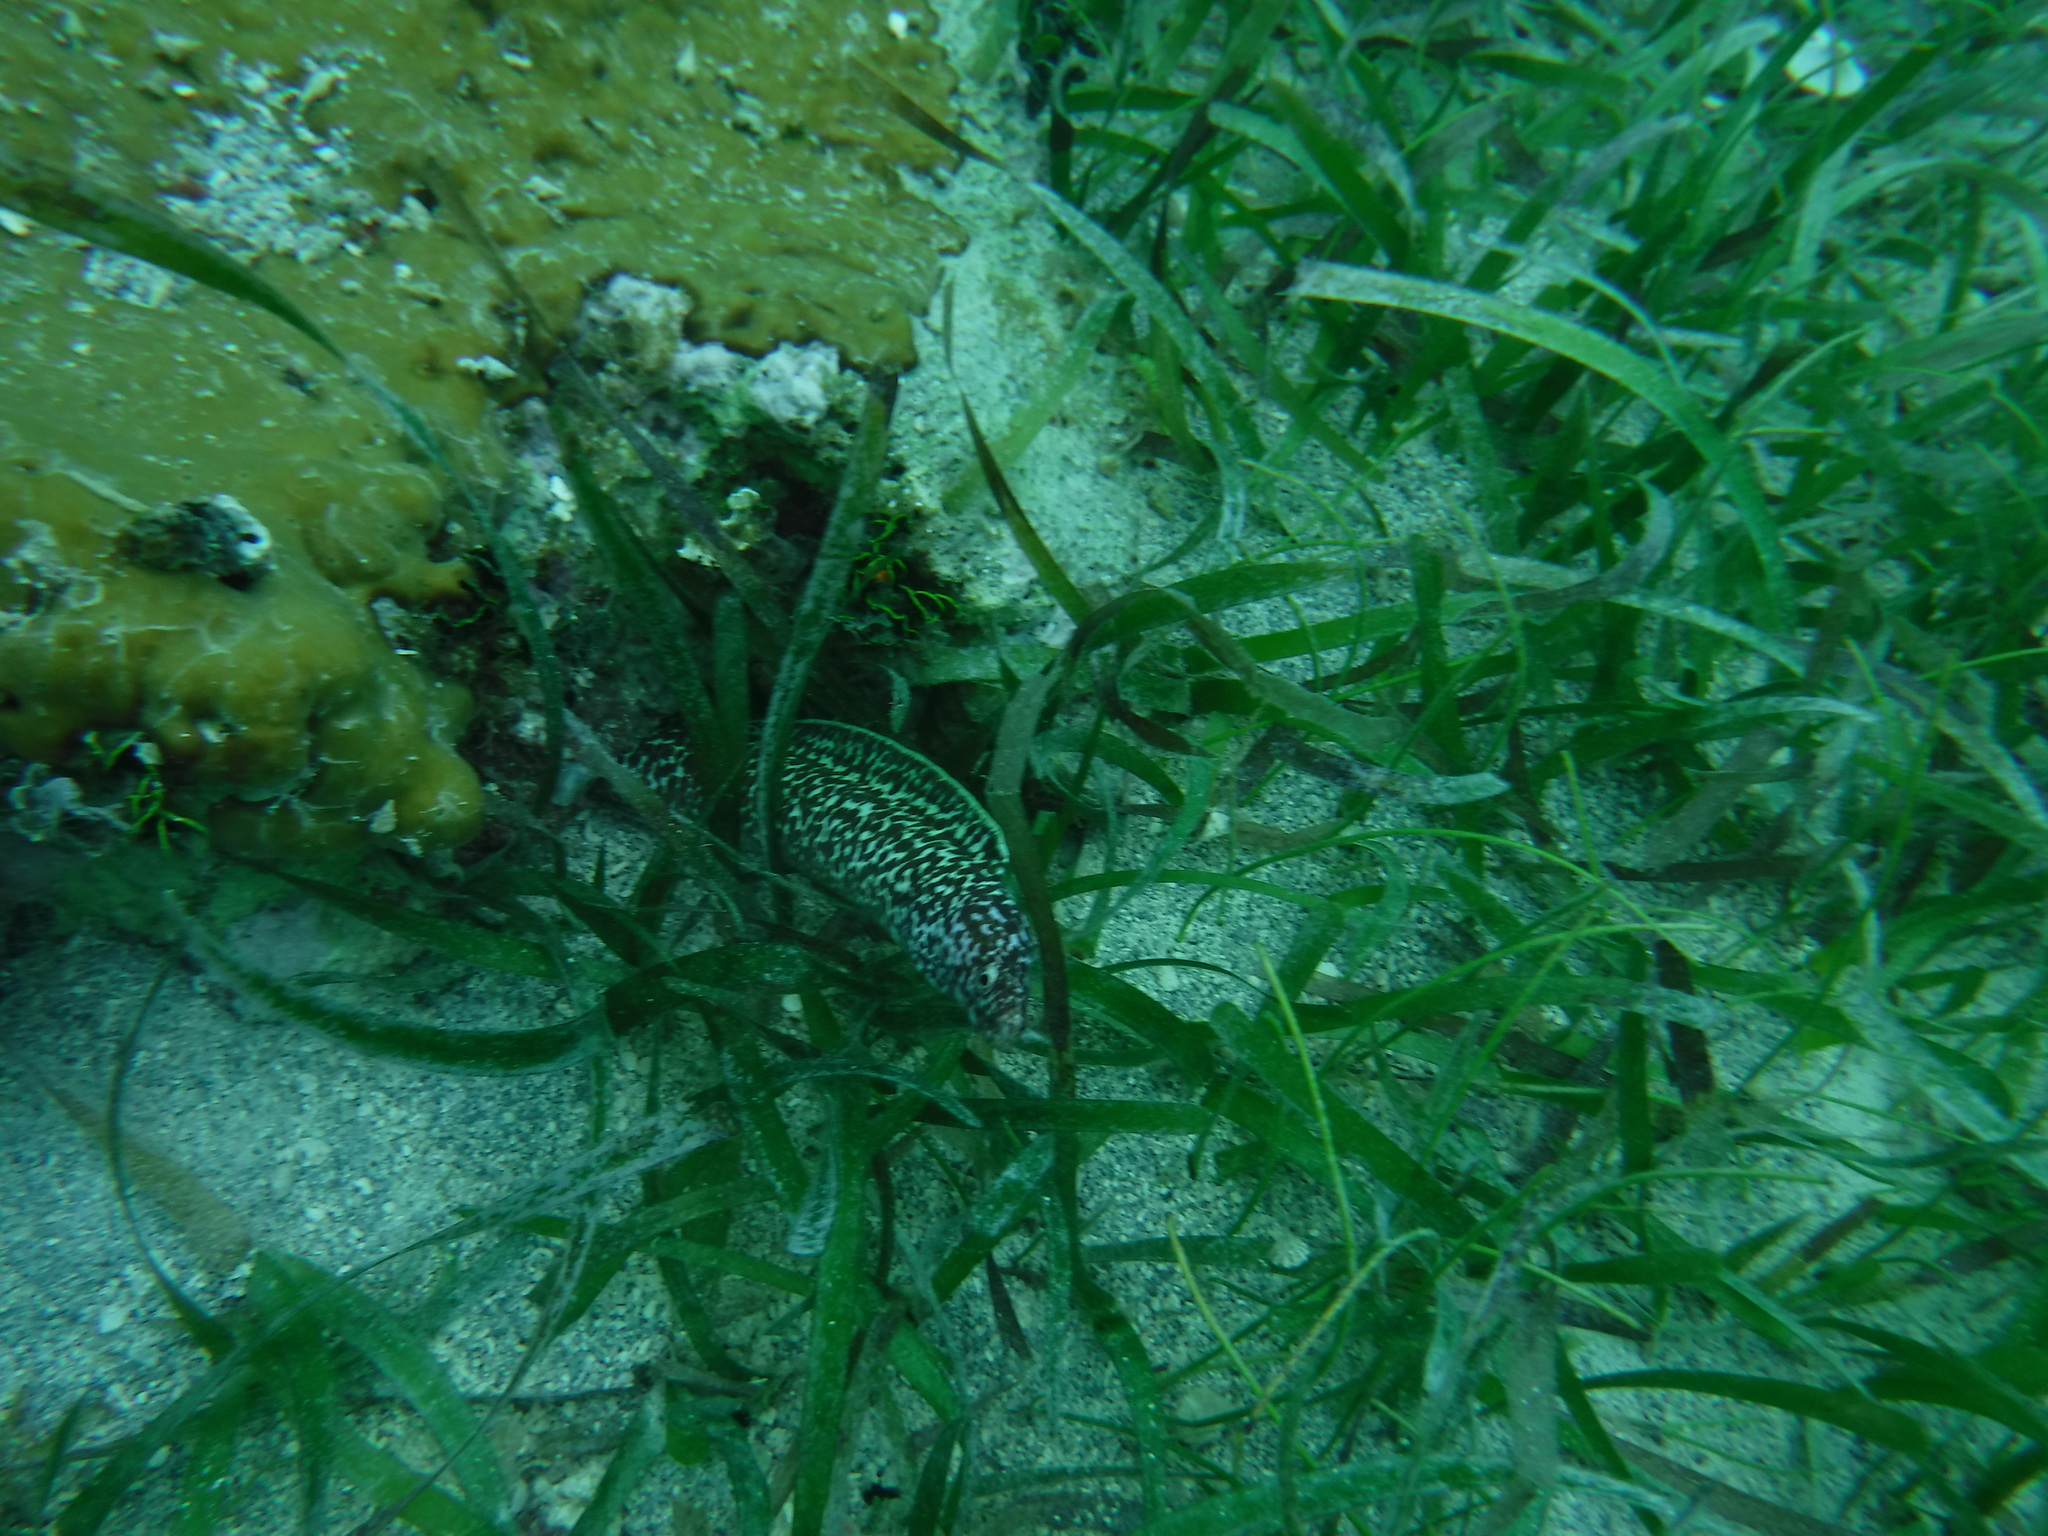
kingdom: Animalia
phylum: Chordata
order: Anguilliformes
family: Muraenidae
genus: Gymnothorax
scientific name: Gymnothorax moringa
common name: Spotted moray
